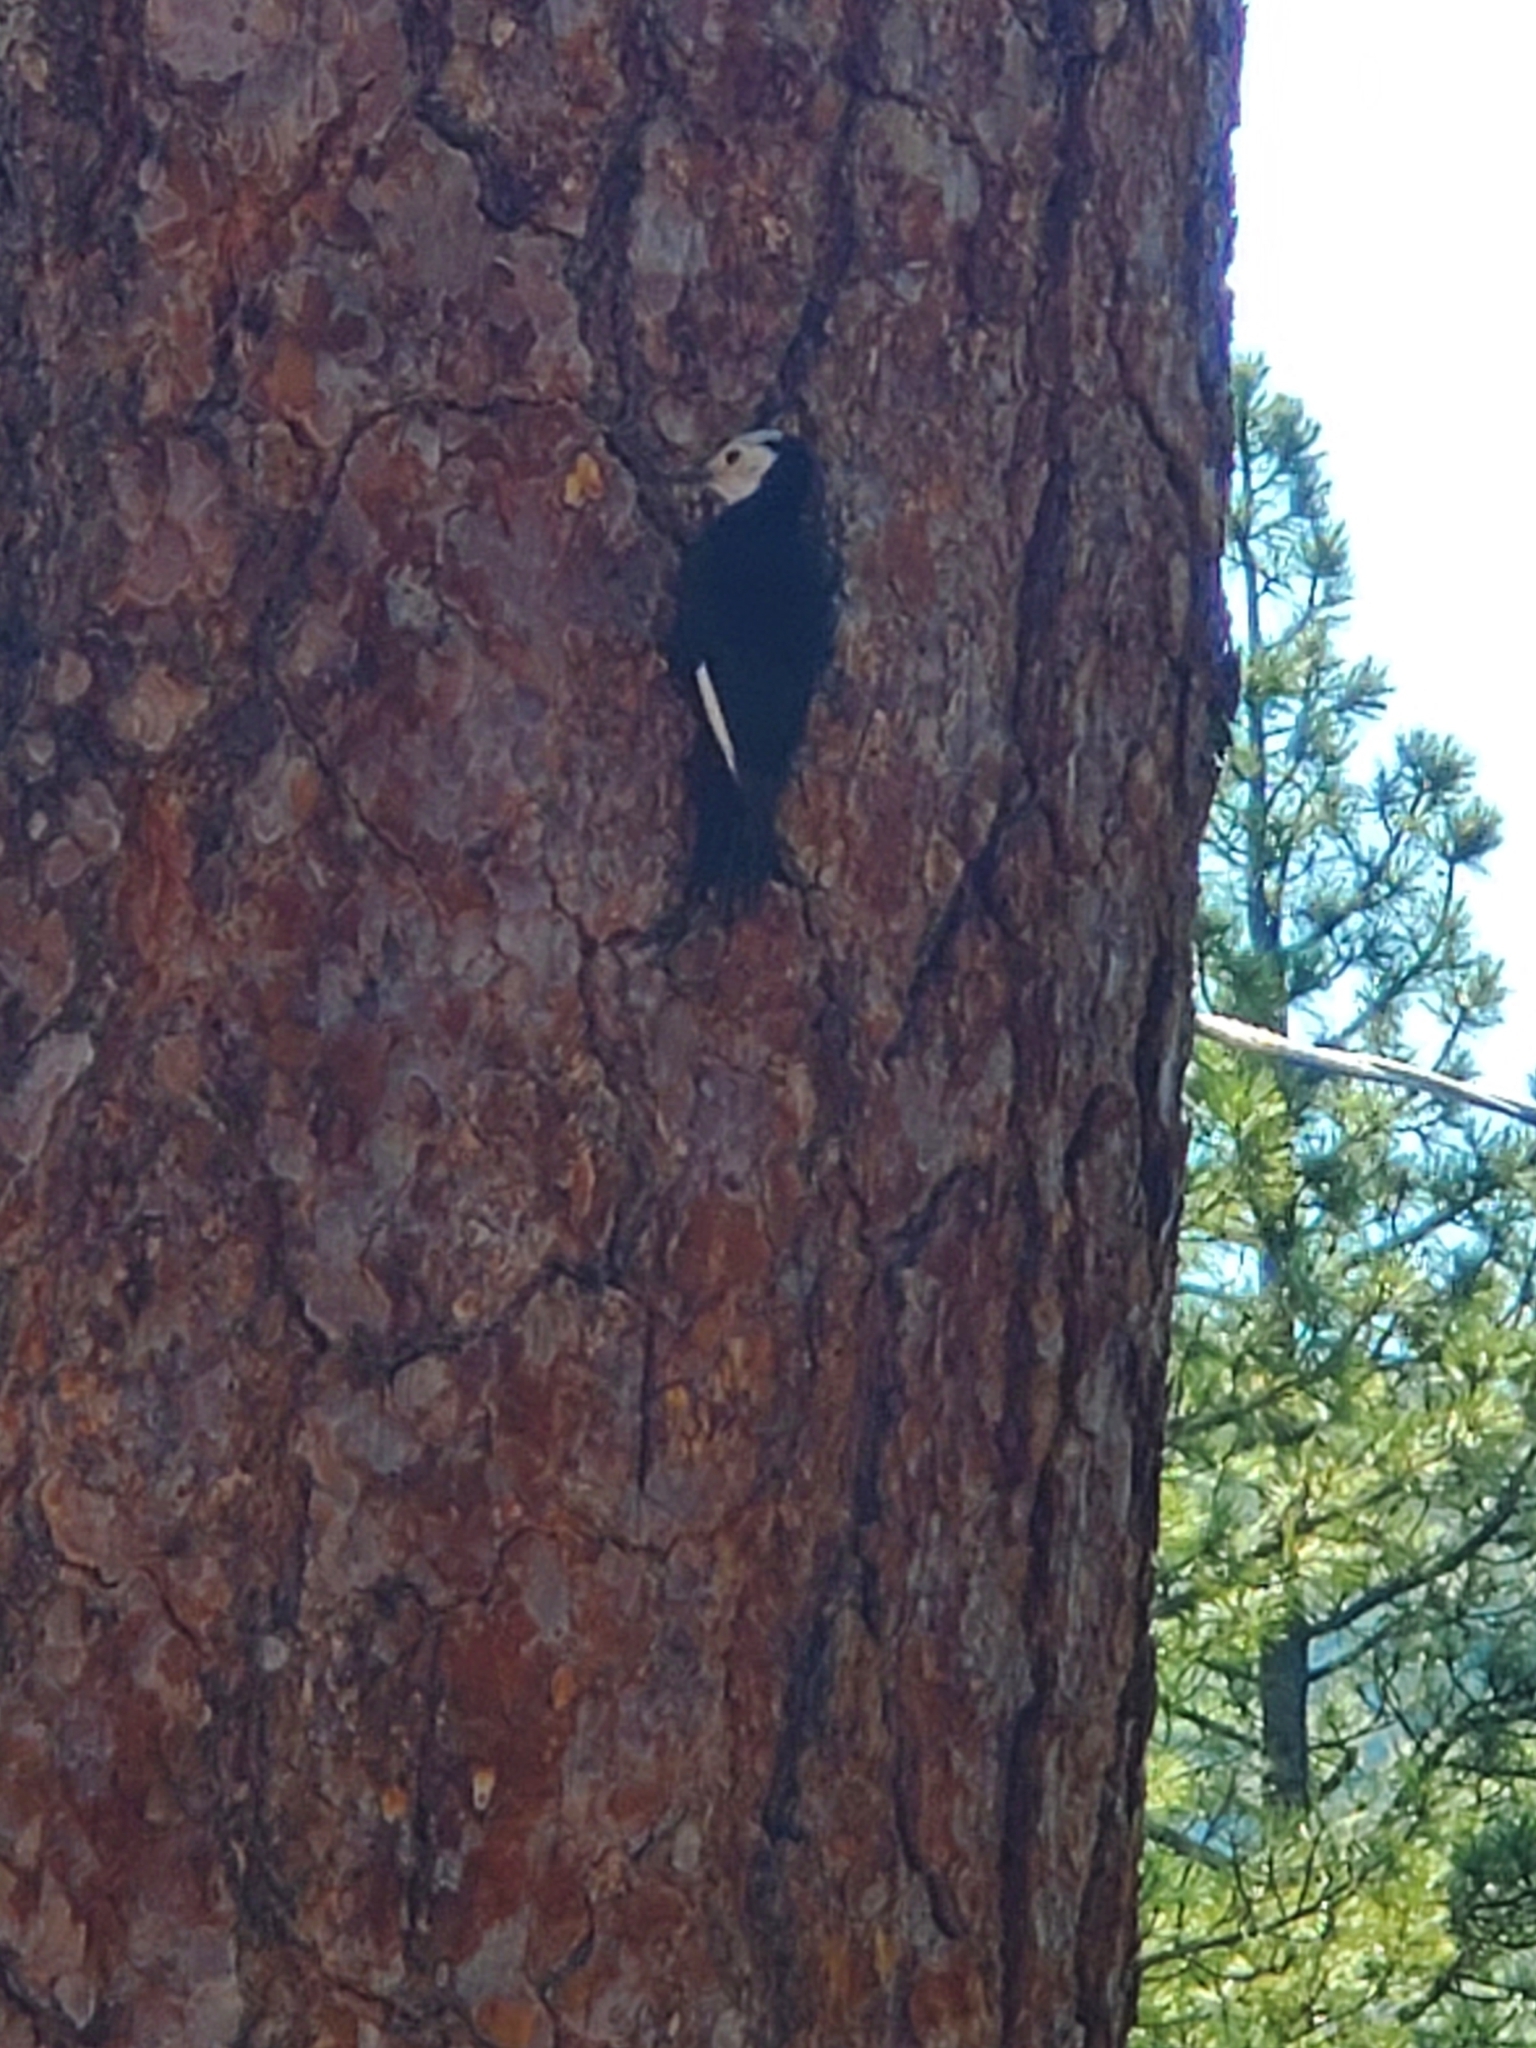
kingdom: Animalia
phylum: Chordata
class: Aves
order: Piciformes
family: Picidae
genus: Leuconotopicus
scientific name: Leuconotopicus albolarvatus
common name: White-headed woodpecker
